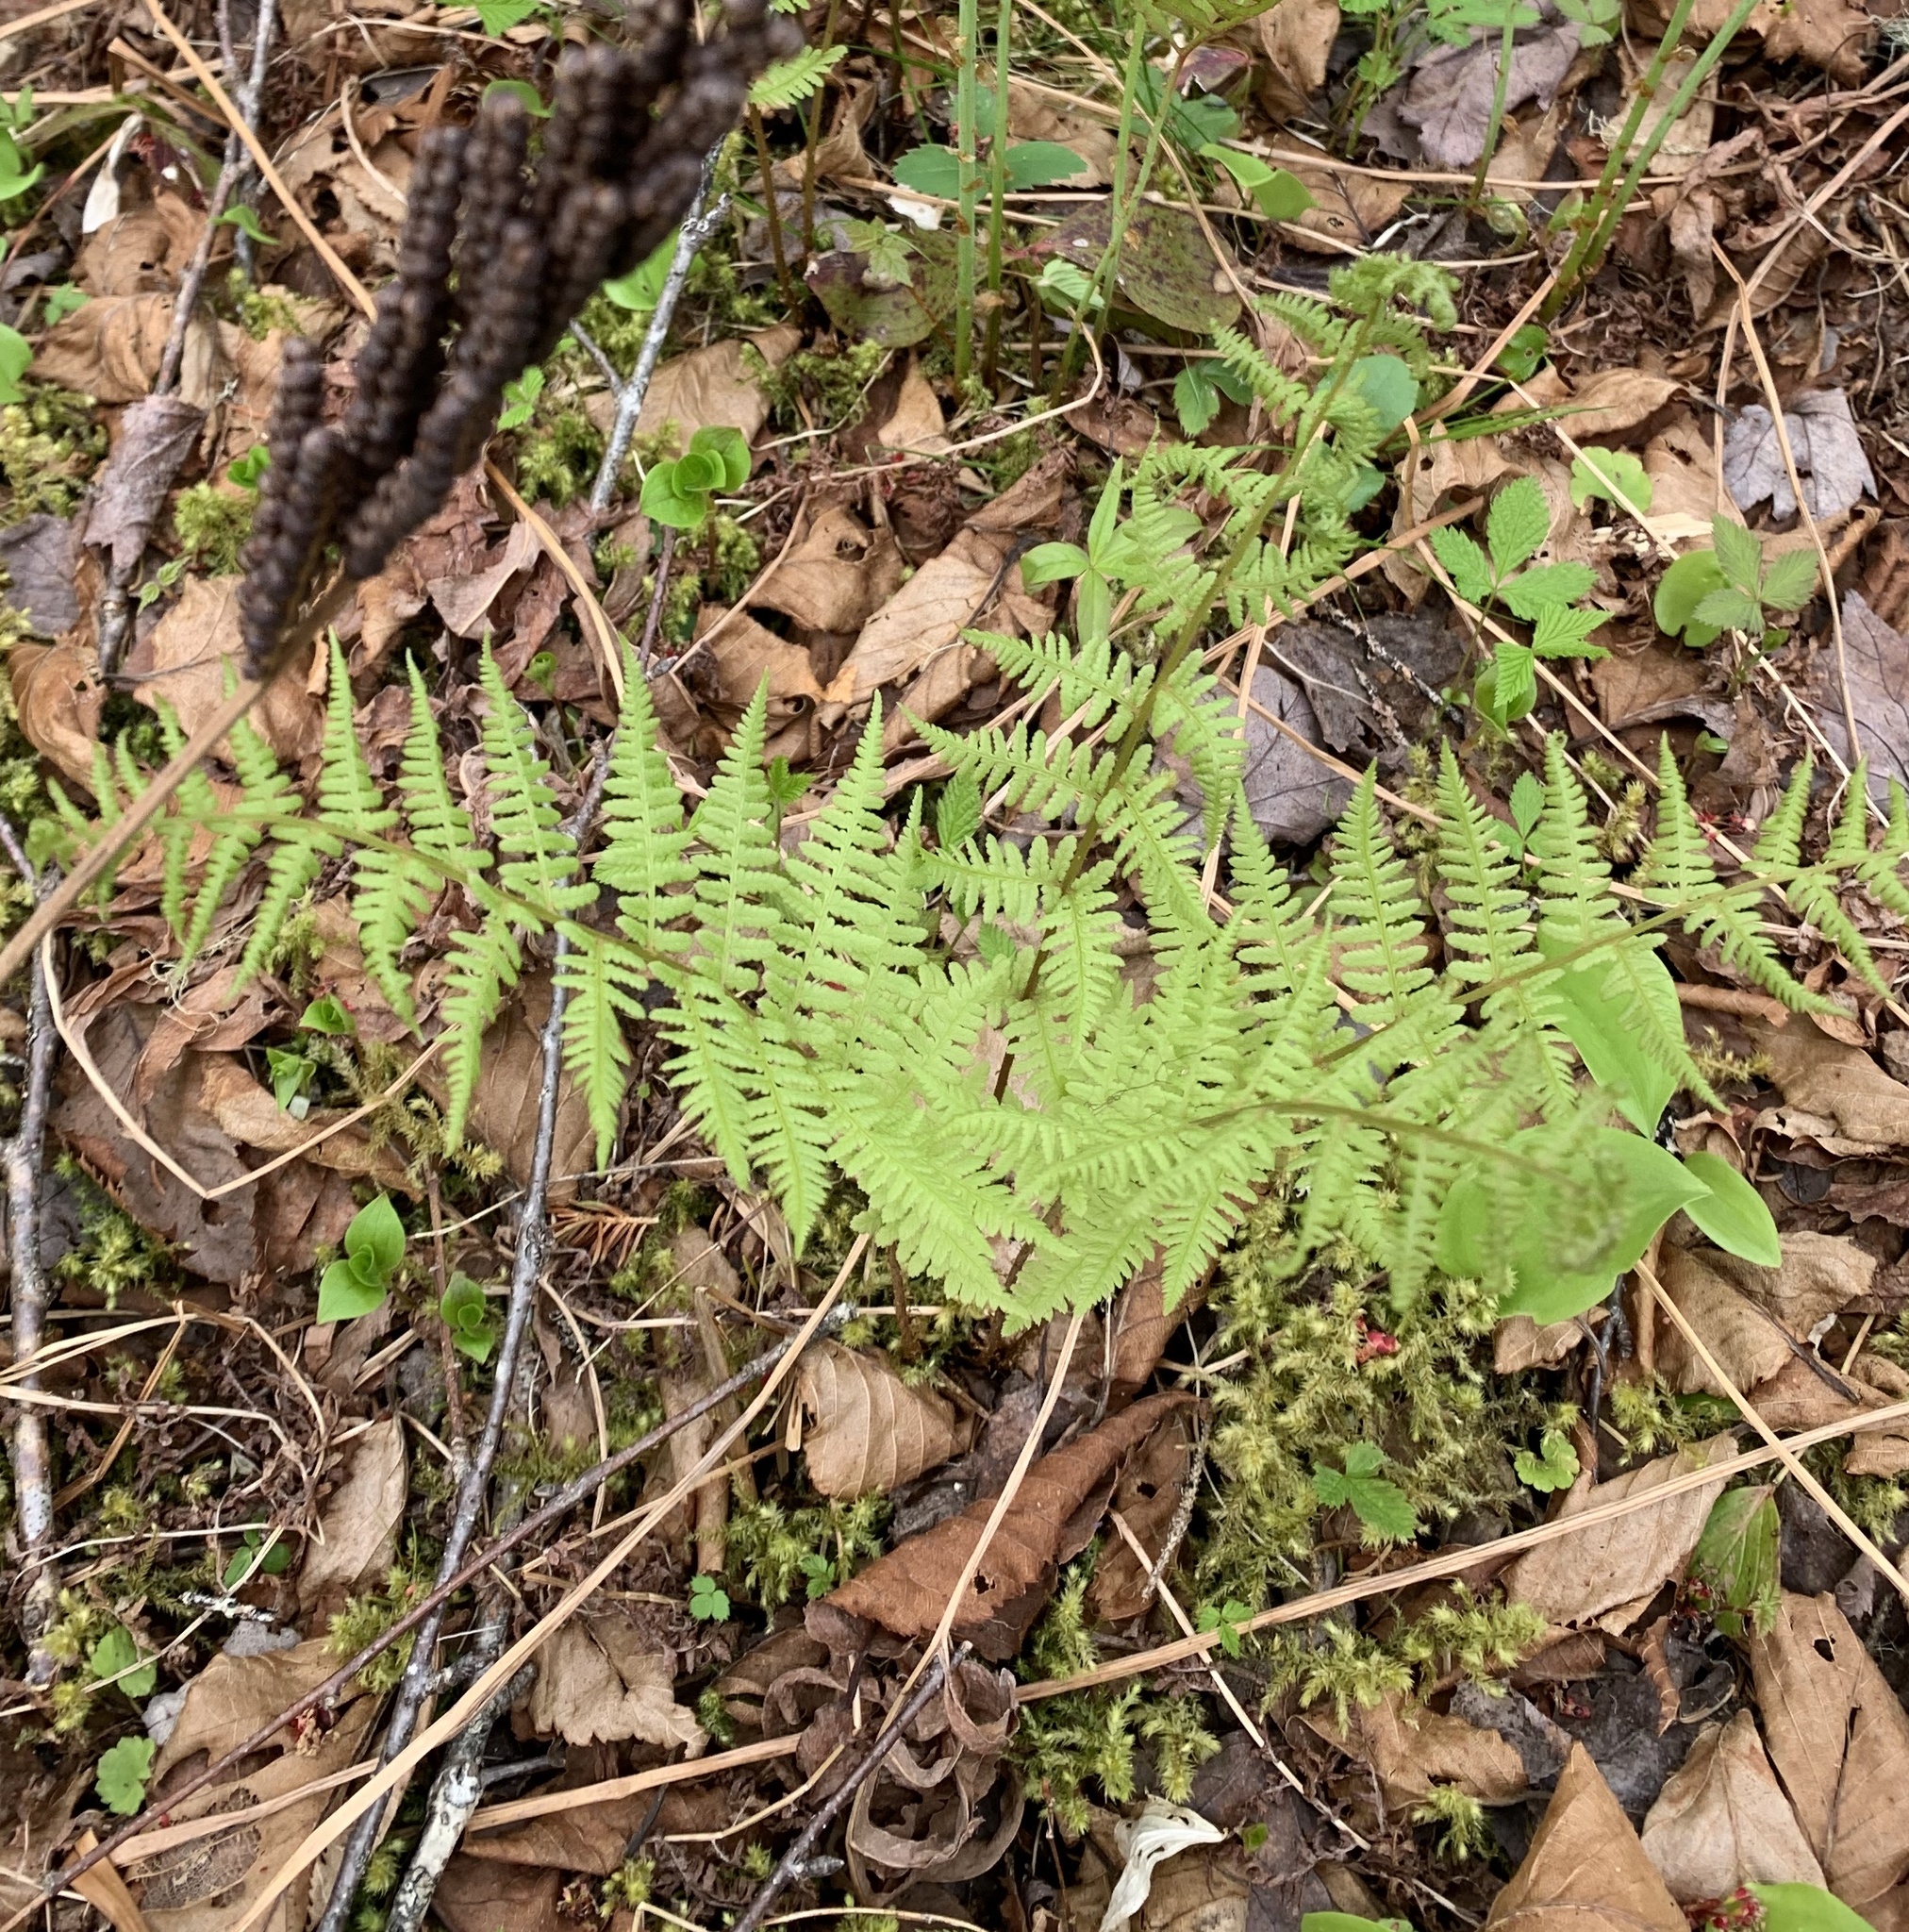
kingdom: Plantae
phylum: Tracheophyta
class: Polypodiopsida
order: Polypodiales
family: Athyriaceae
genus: Athyrium
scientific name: Athyrium angustum
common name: Northern lady fern
